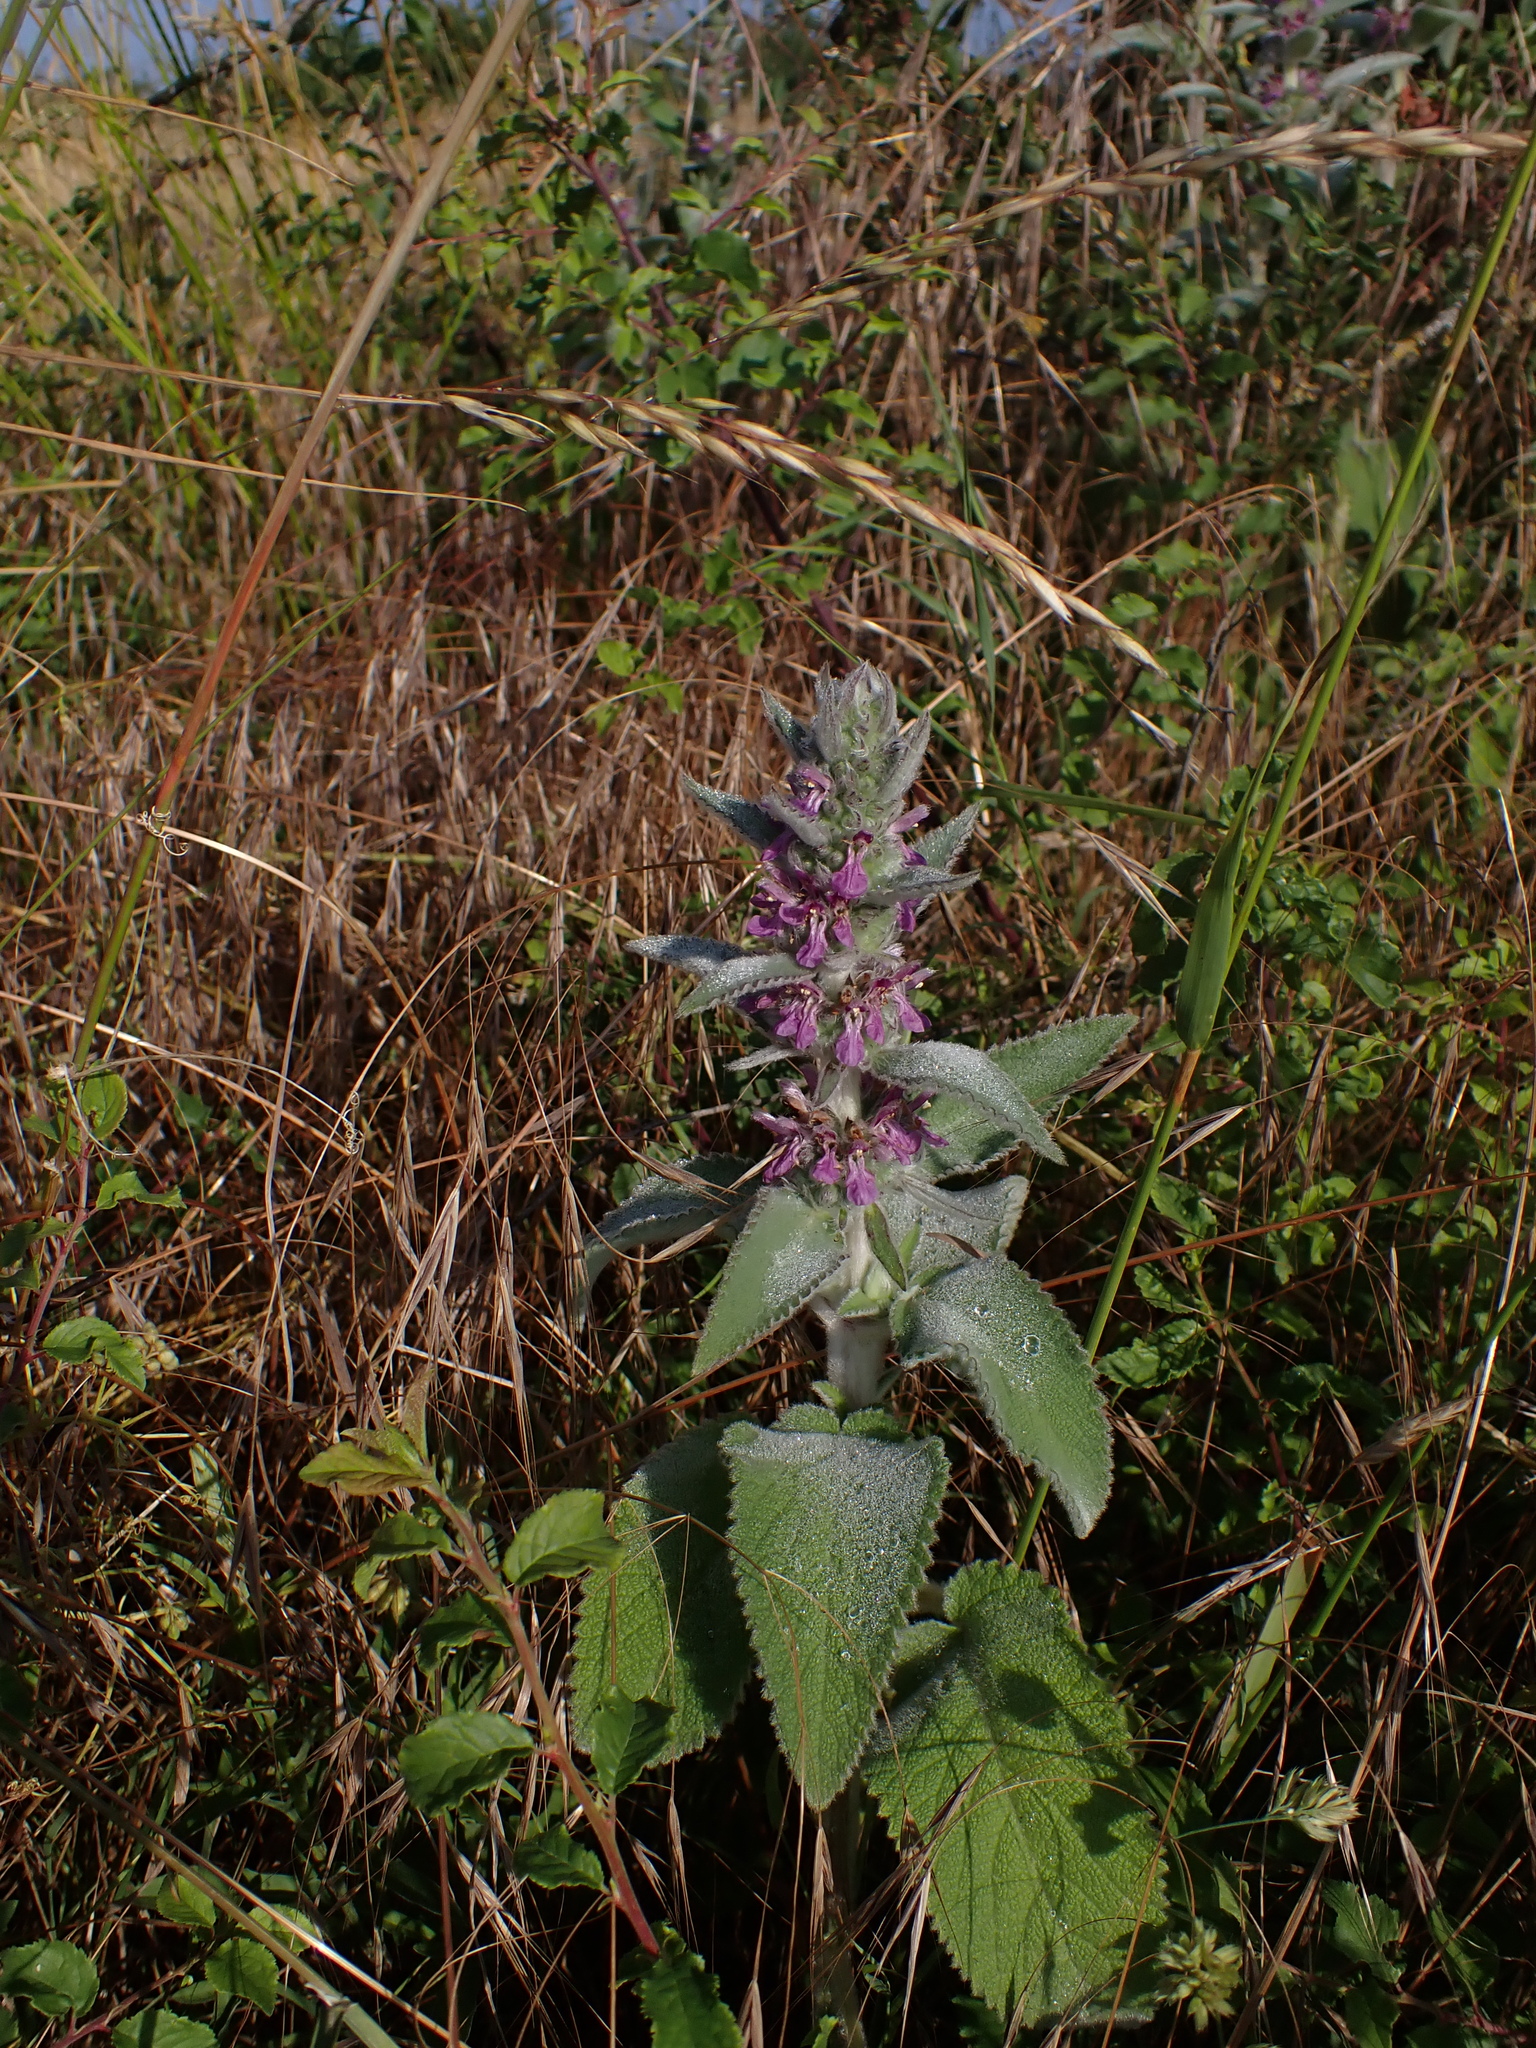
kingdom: Plantae
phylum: Tracheophyta
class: Magnoliopsida
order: Lamiales
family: Lamiaceae
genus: Stachys
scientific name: Stachys germanica
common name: Downy woundwort
